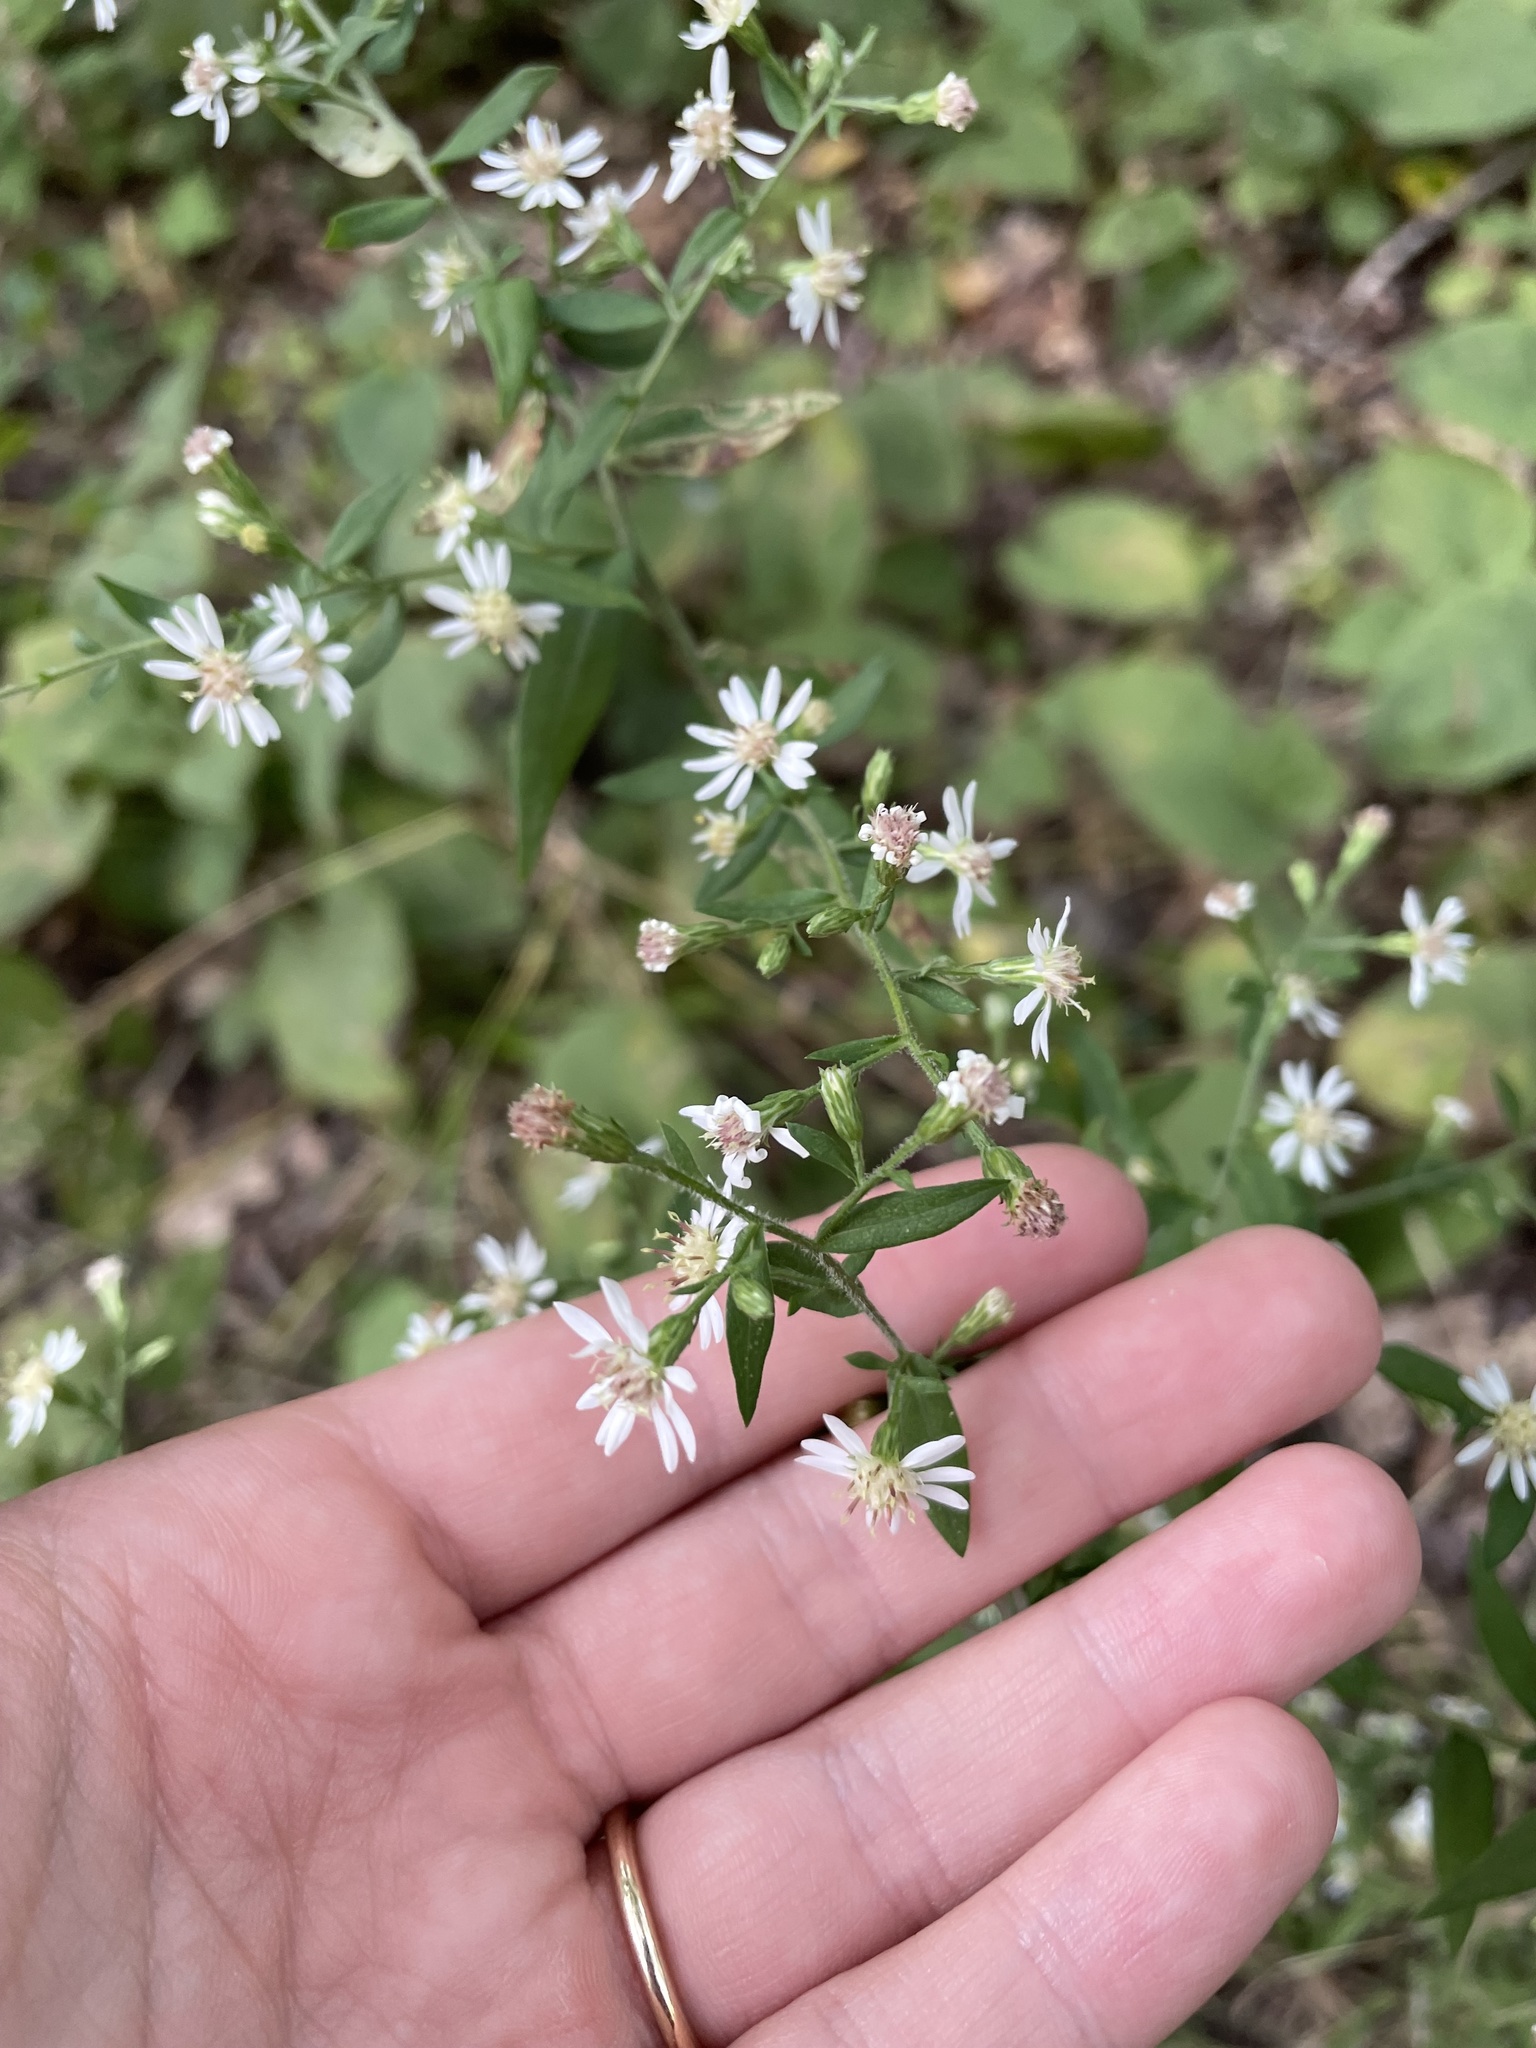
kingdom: Plantae
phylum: Tracheophyta
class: Magnoliopsida
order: Asterales
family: Asteraceae
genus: Symphyotrichum
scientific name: Symphyotrichum lateriflorum
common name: Calico aster
